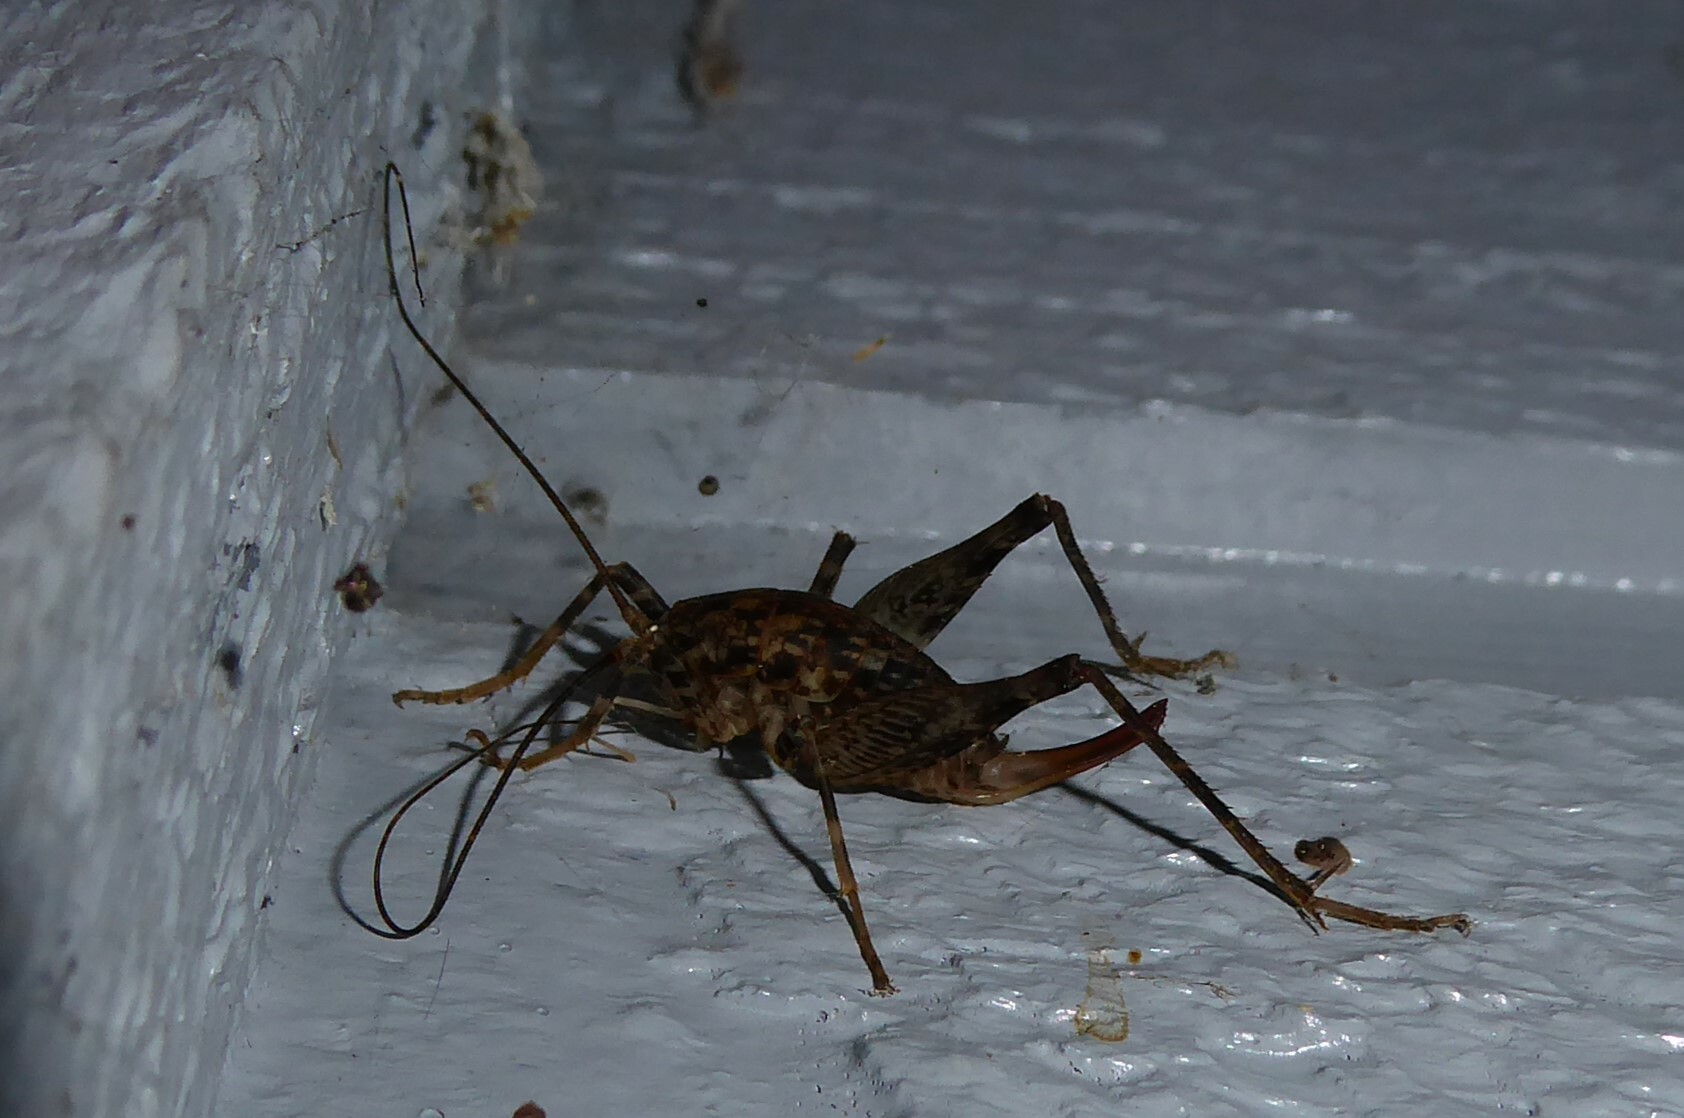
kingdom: Animalia
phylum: Arthropoda
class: Insecta
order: Orthoptera
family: Rhaphidophoridae
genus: Pleioplectron
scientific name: Pleioplectron simplex
